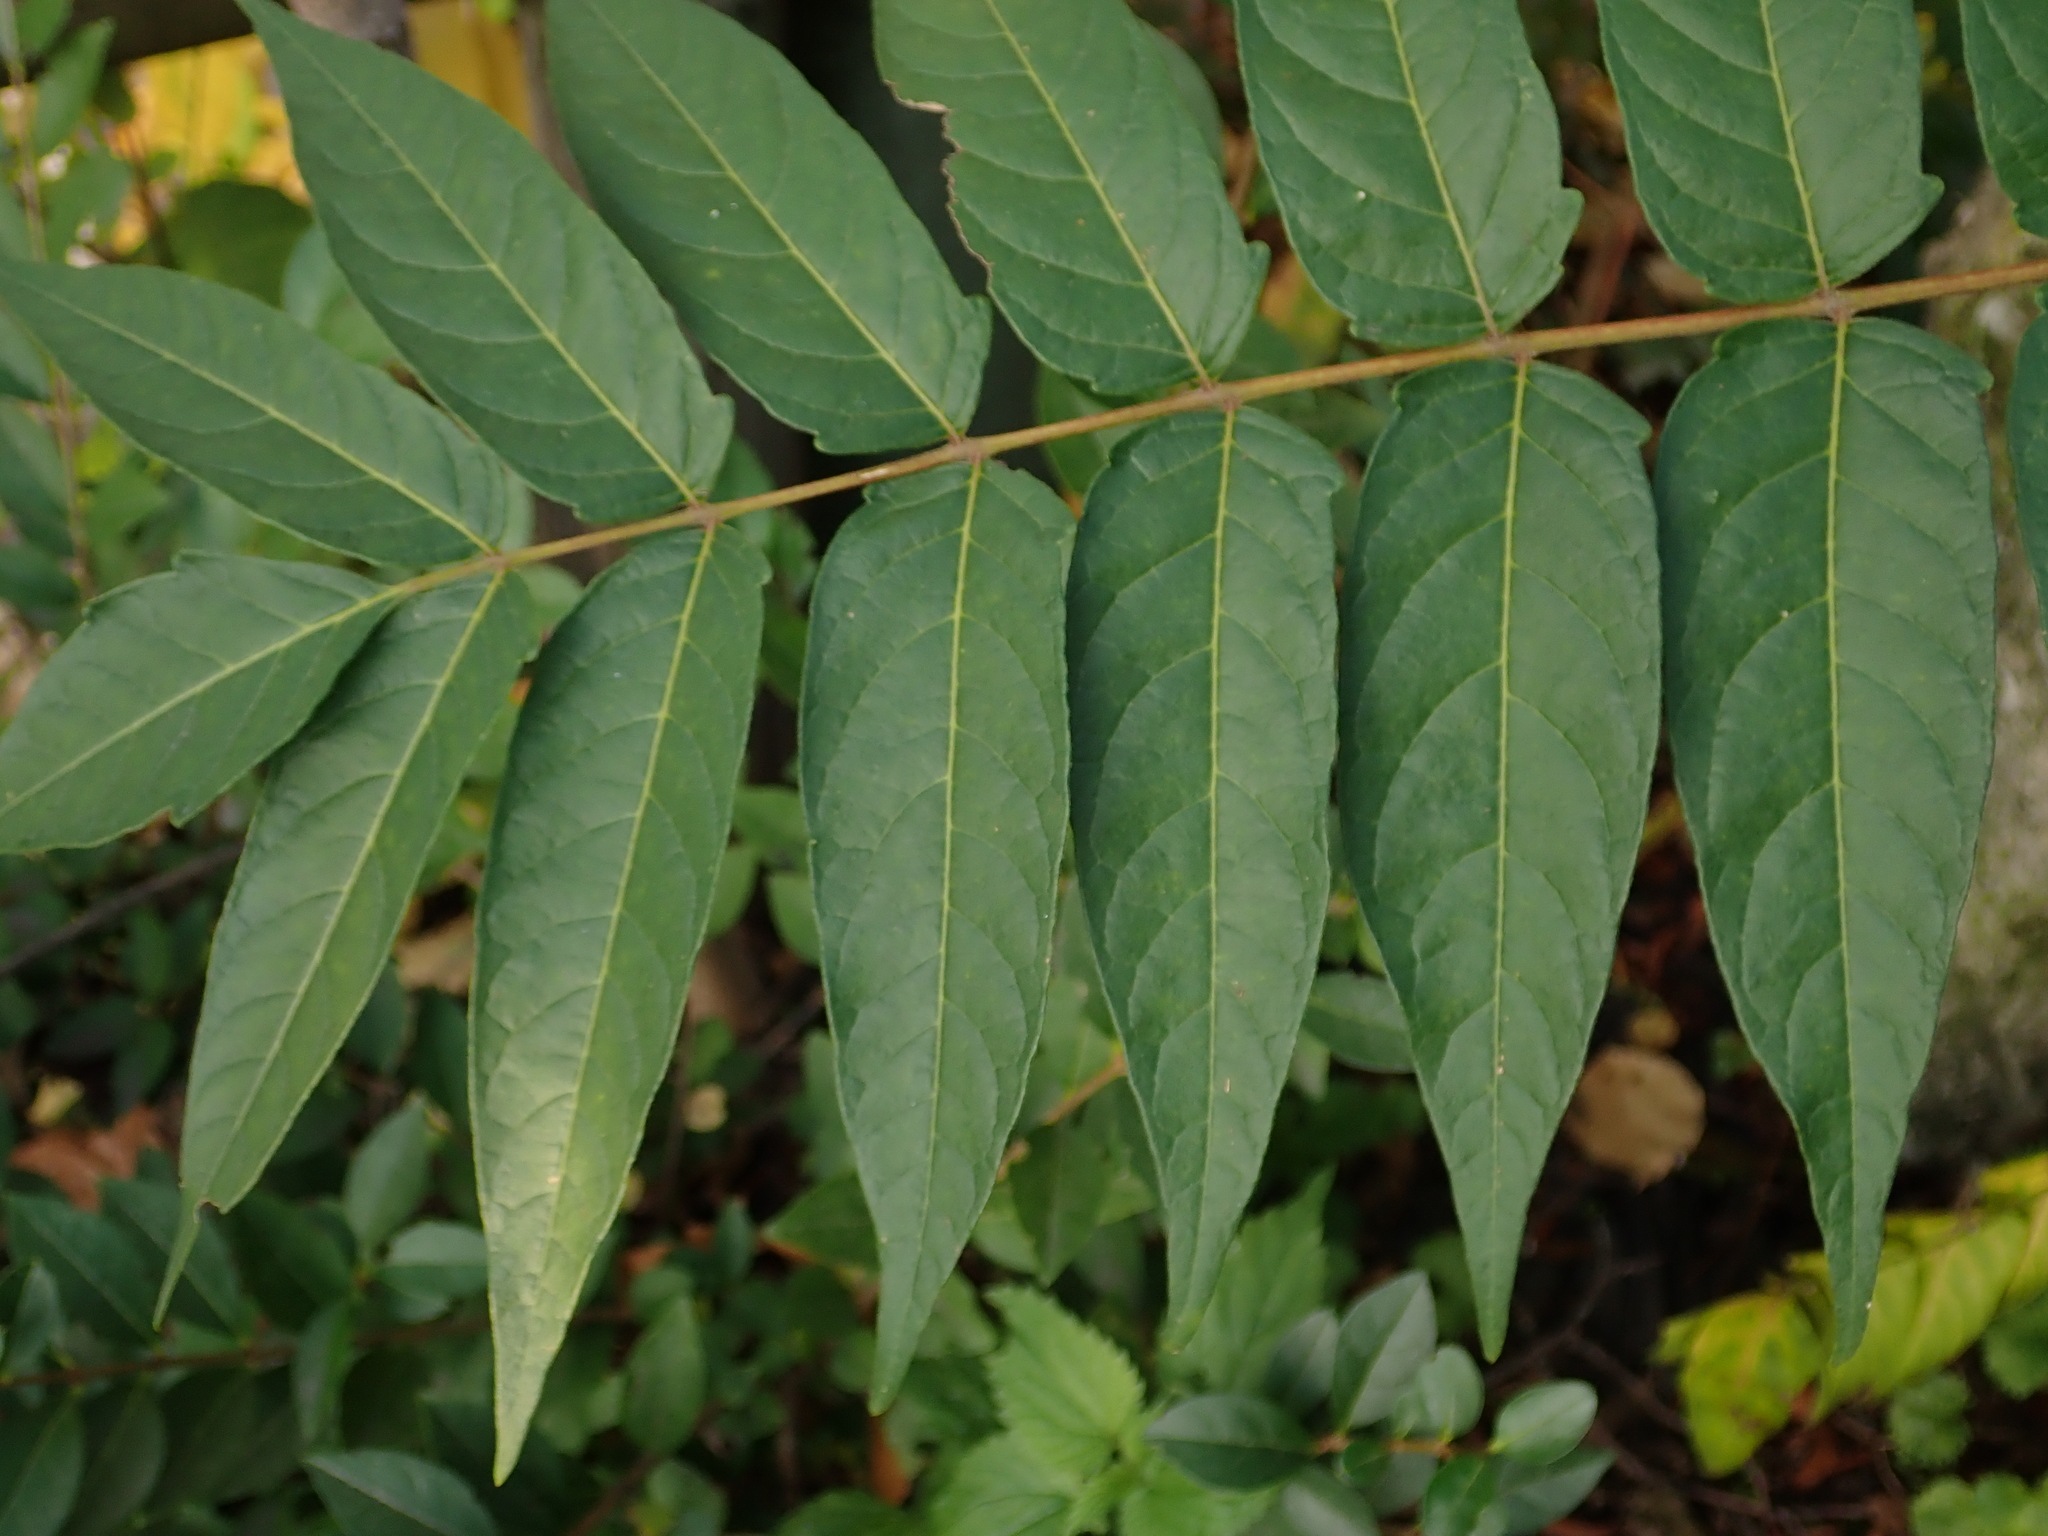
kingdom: Plantae
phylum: Tracheophyta
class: Magnoliopsida
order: Sapindales
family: Simaroubaceae
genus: Ailanthus
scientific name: Ailanthus altissima
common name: Tree-of-heaven
